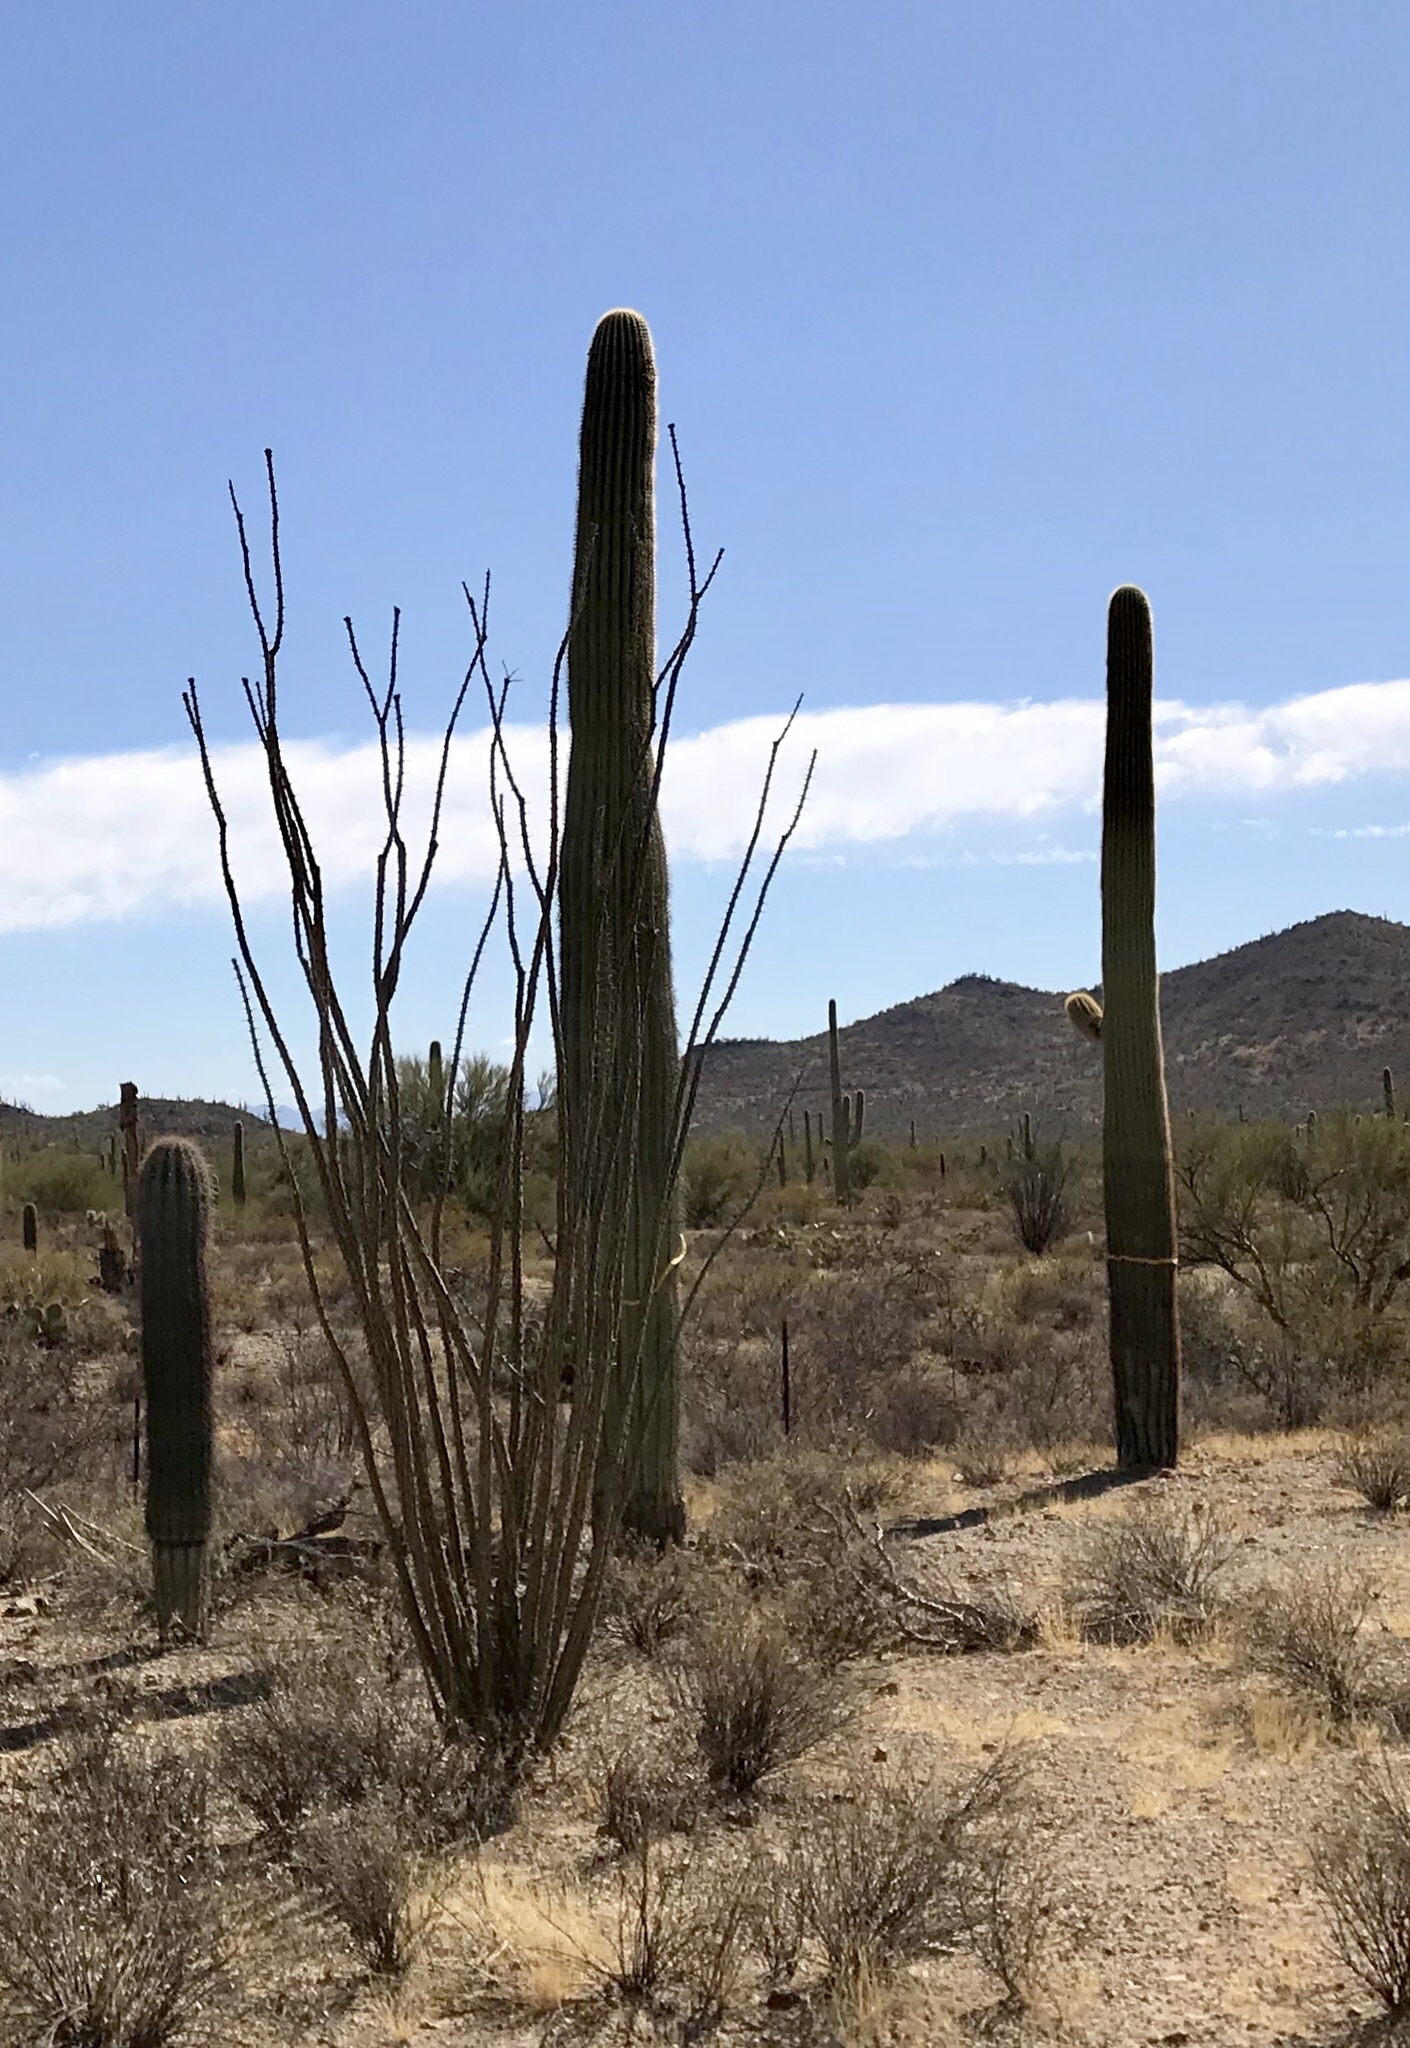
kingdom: Plantae
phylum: Tracheophyta
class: Magnoliopsida
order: Ericales
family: Fouquieriaceae
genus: Fouquieria
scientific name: Fouquieria splendens
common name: Vine-cactus
